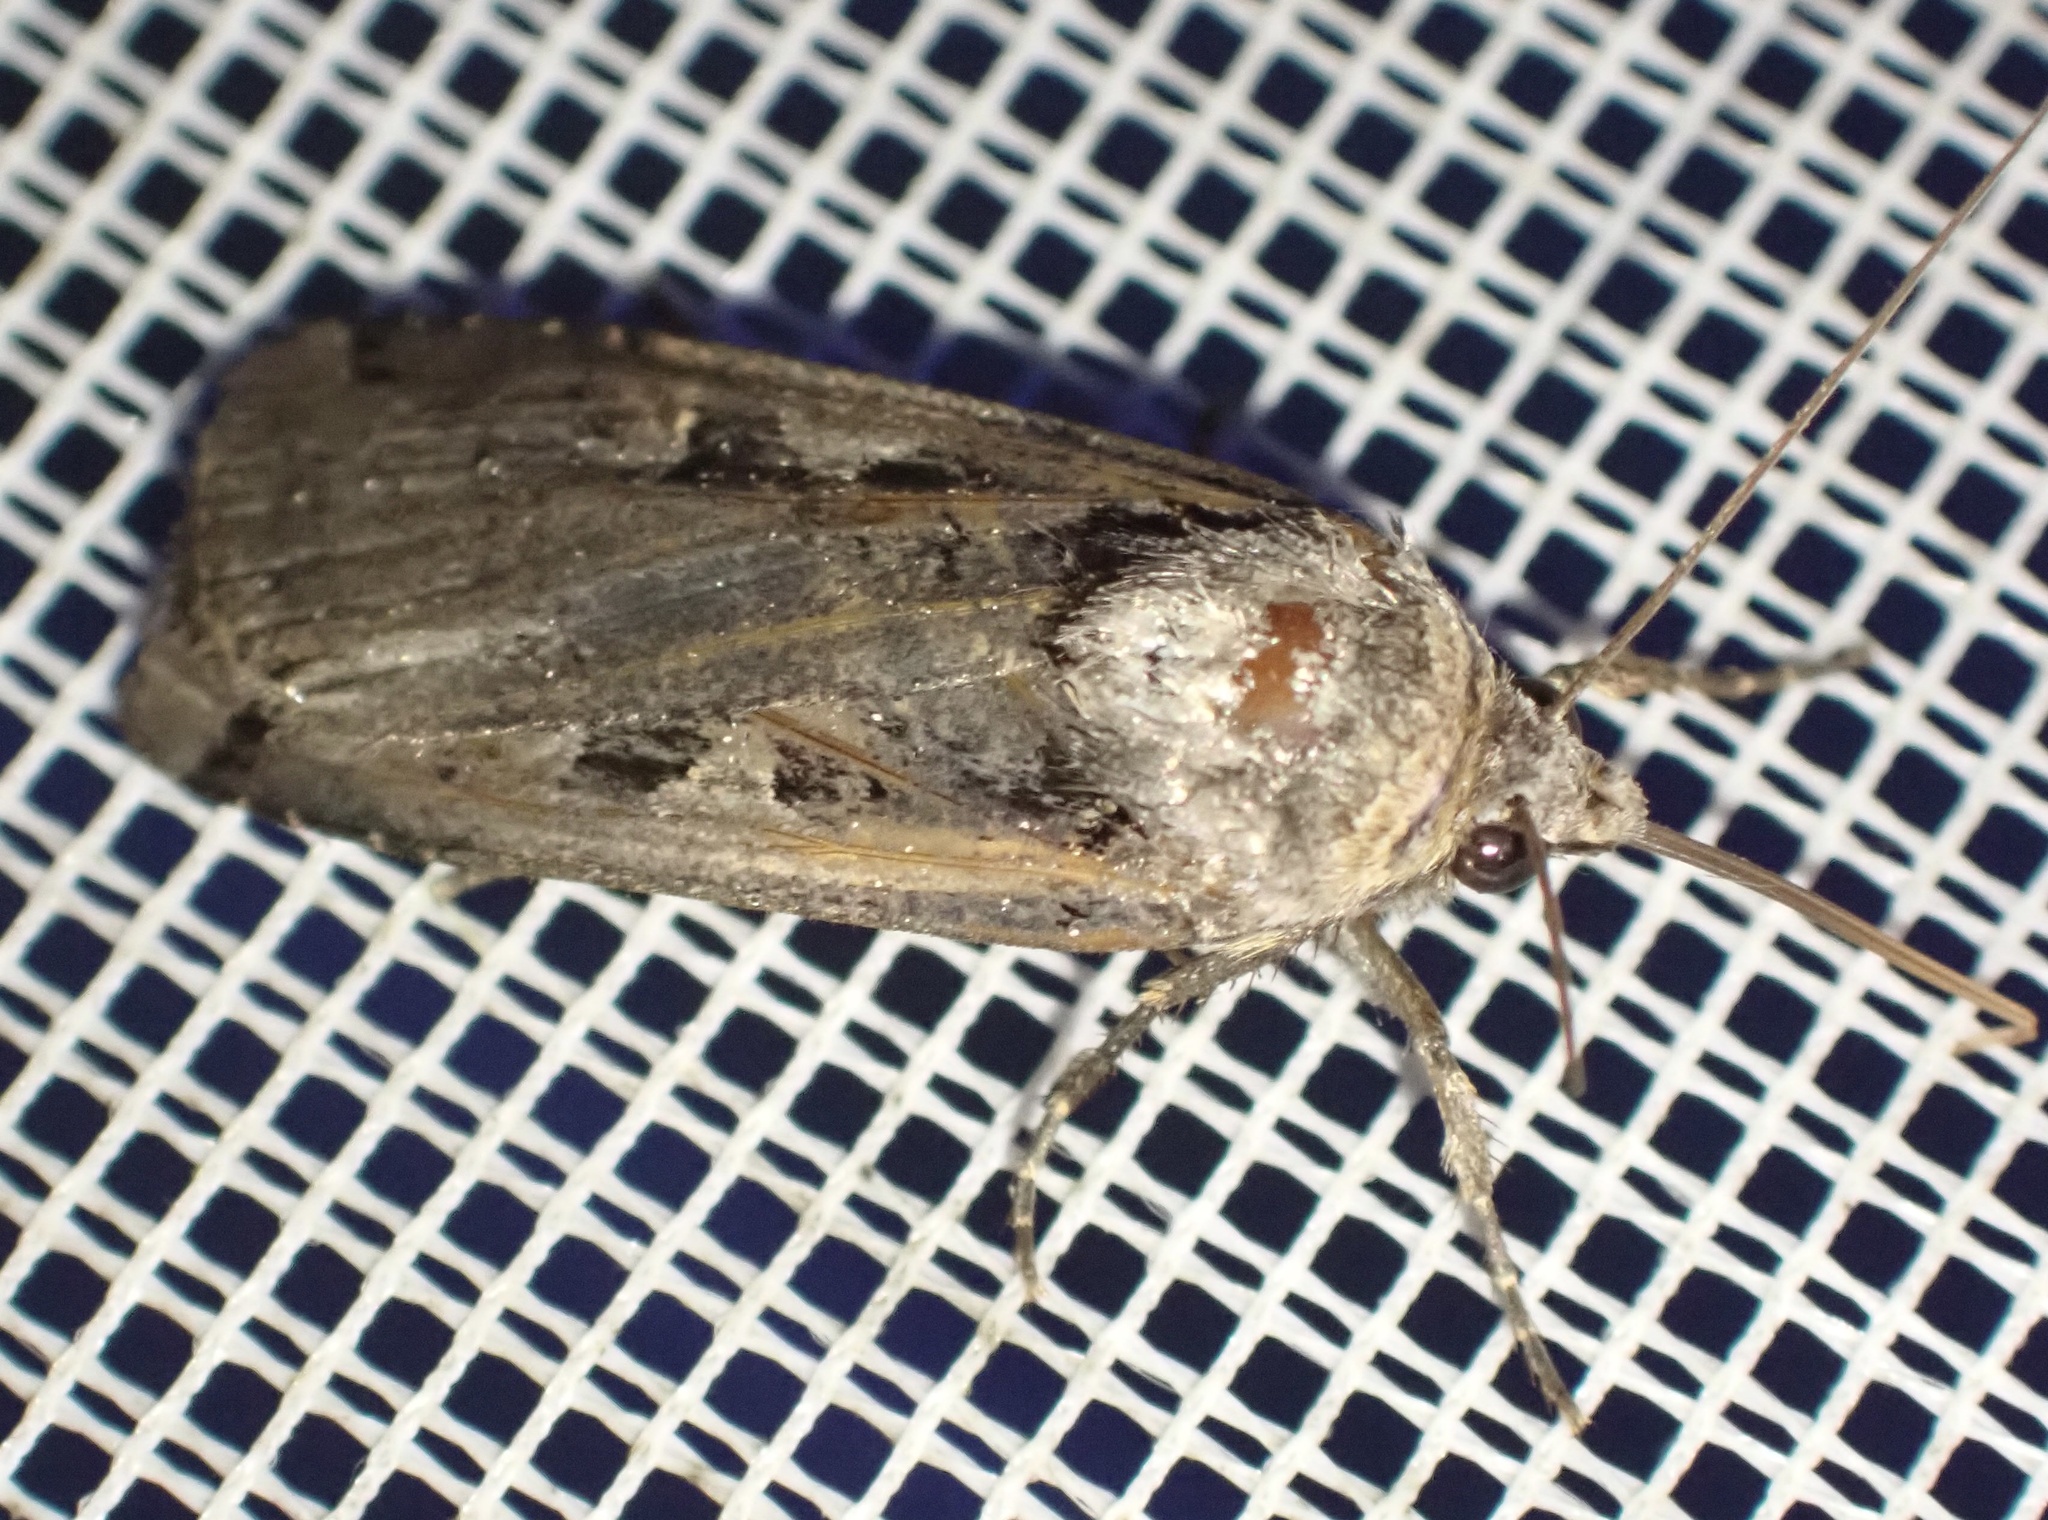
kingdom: Animalia
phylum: Arthropoda
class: Insecta
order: Lepidoptera
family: Noctuidae
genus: Xestia
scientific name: Xestia c-nigrum
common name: Setaceous hebrew character
